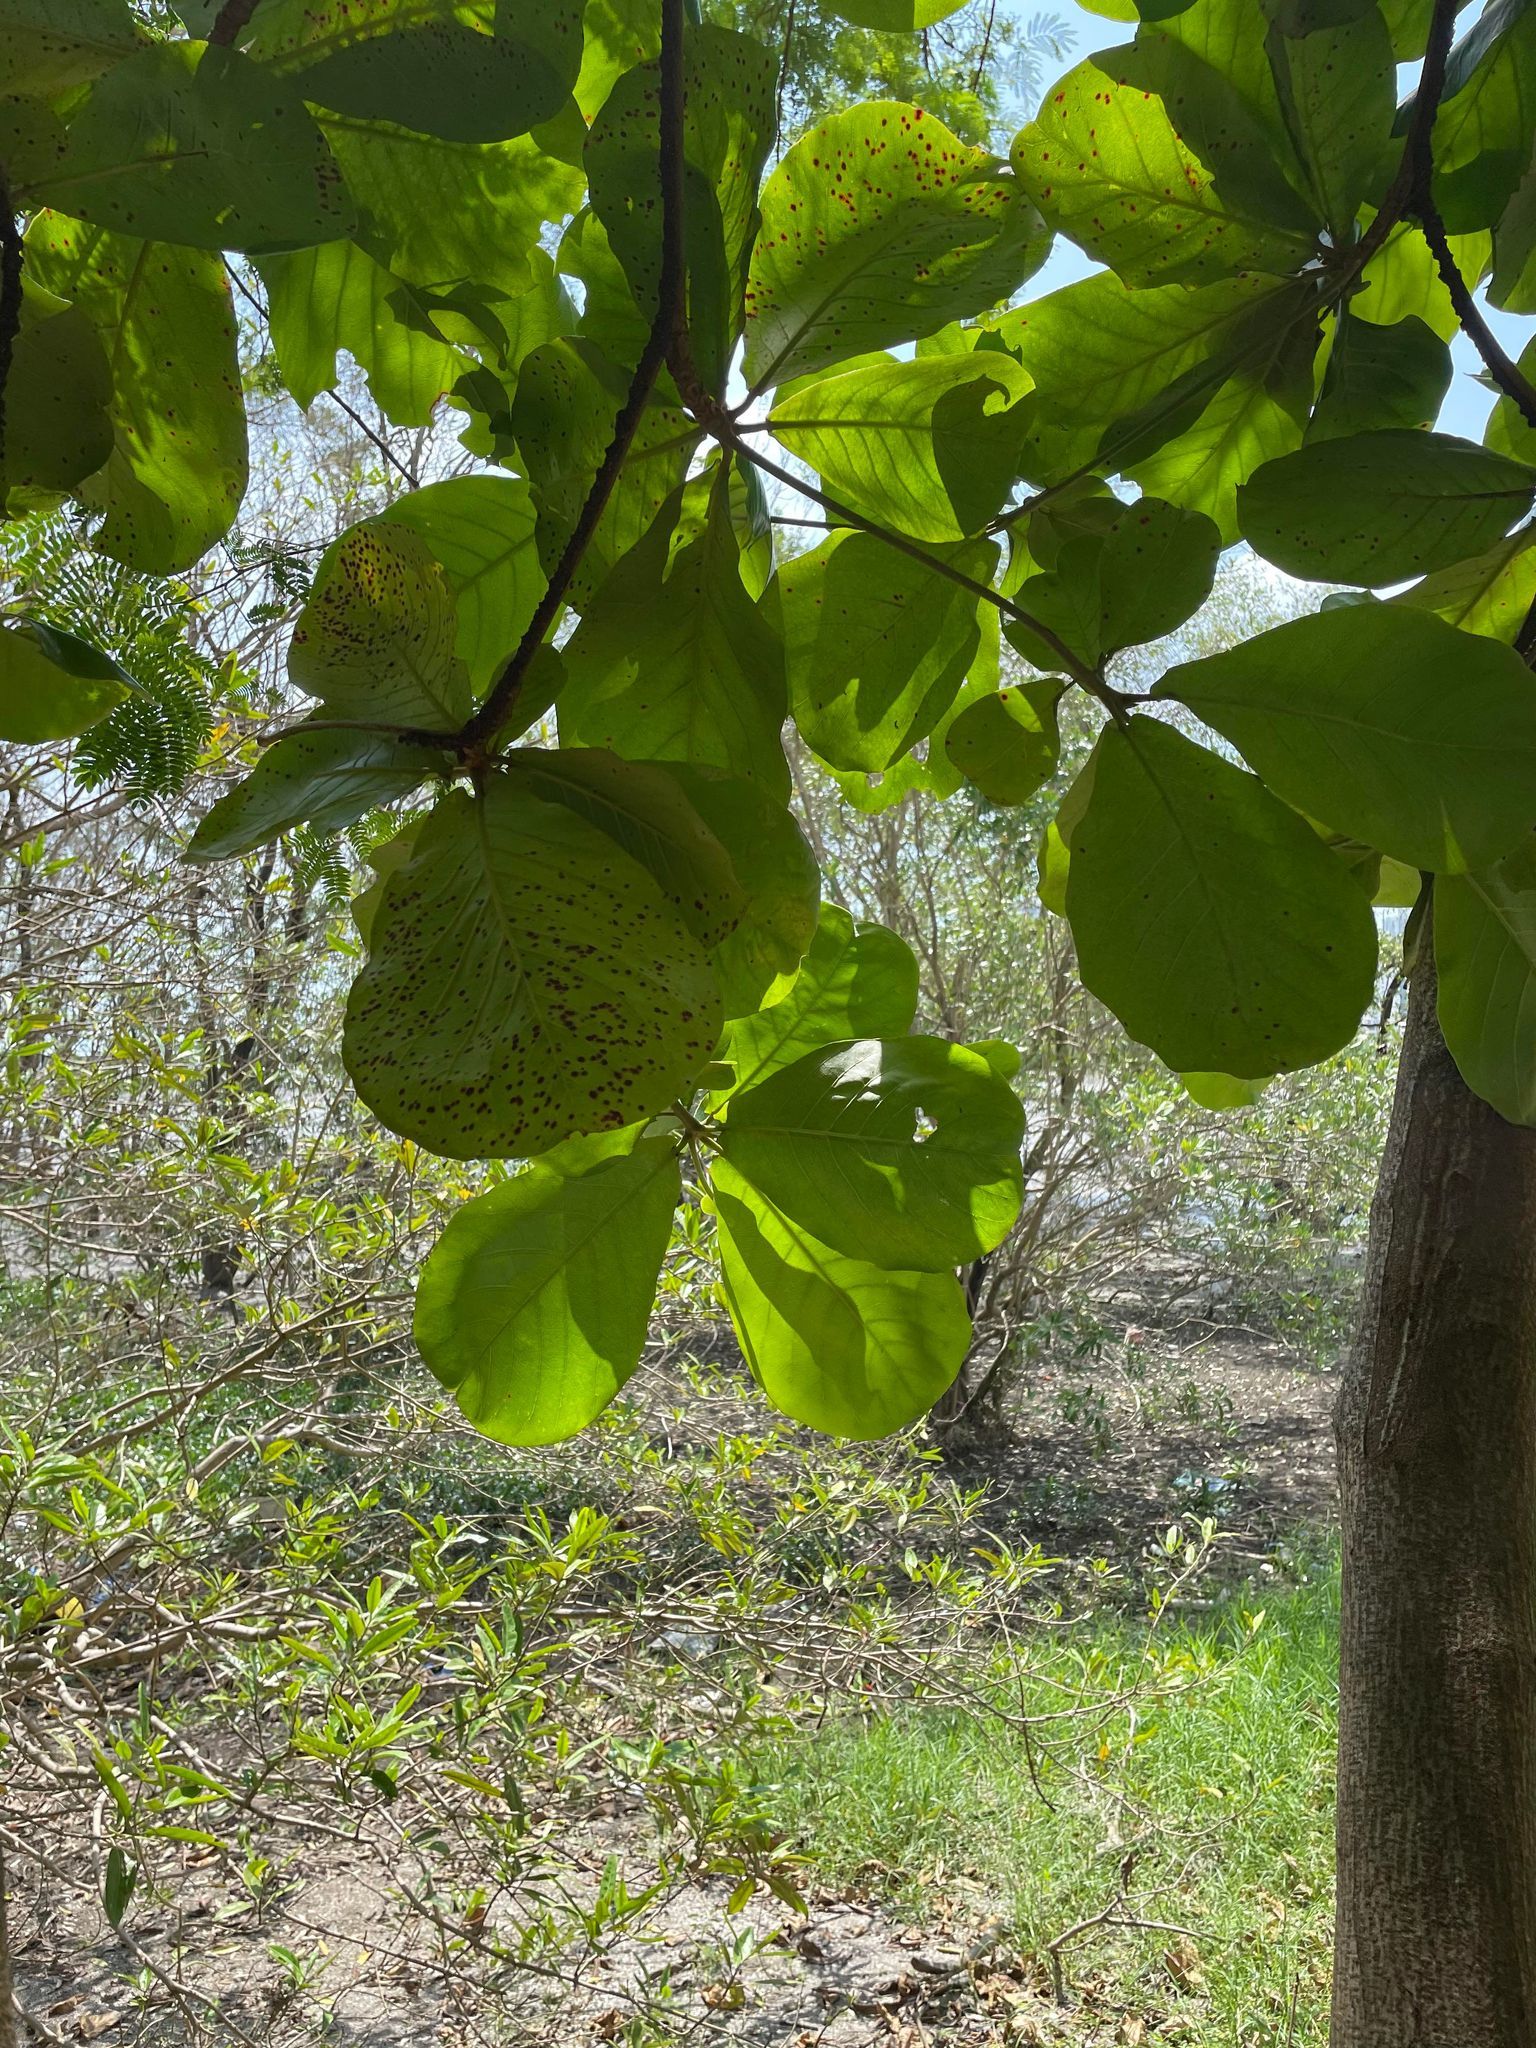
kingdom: Plantae
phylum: Tracheophyta
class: Magnoliopsida
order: Myrtales
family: Combretaceae
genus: Terminalia
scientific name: Terminalia catappa
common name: Tropical almond
